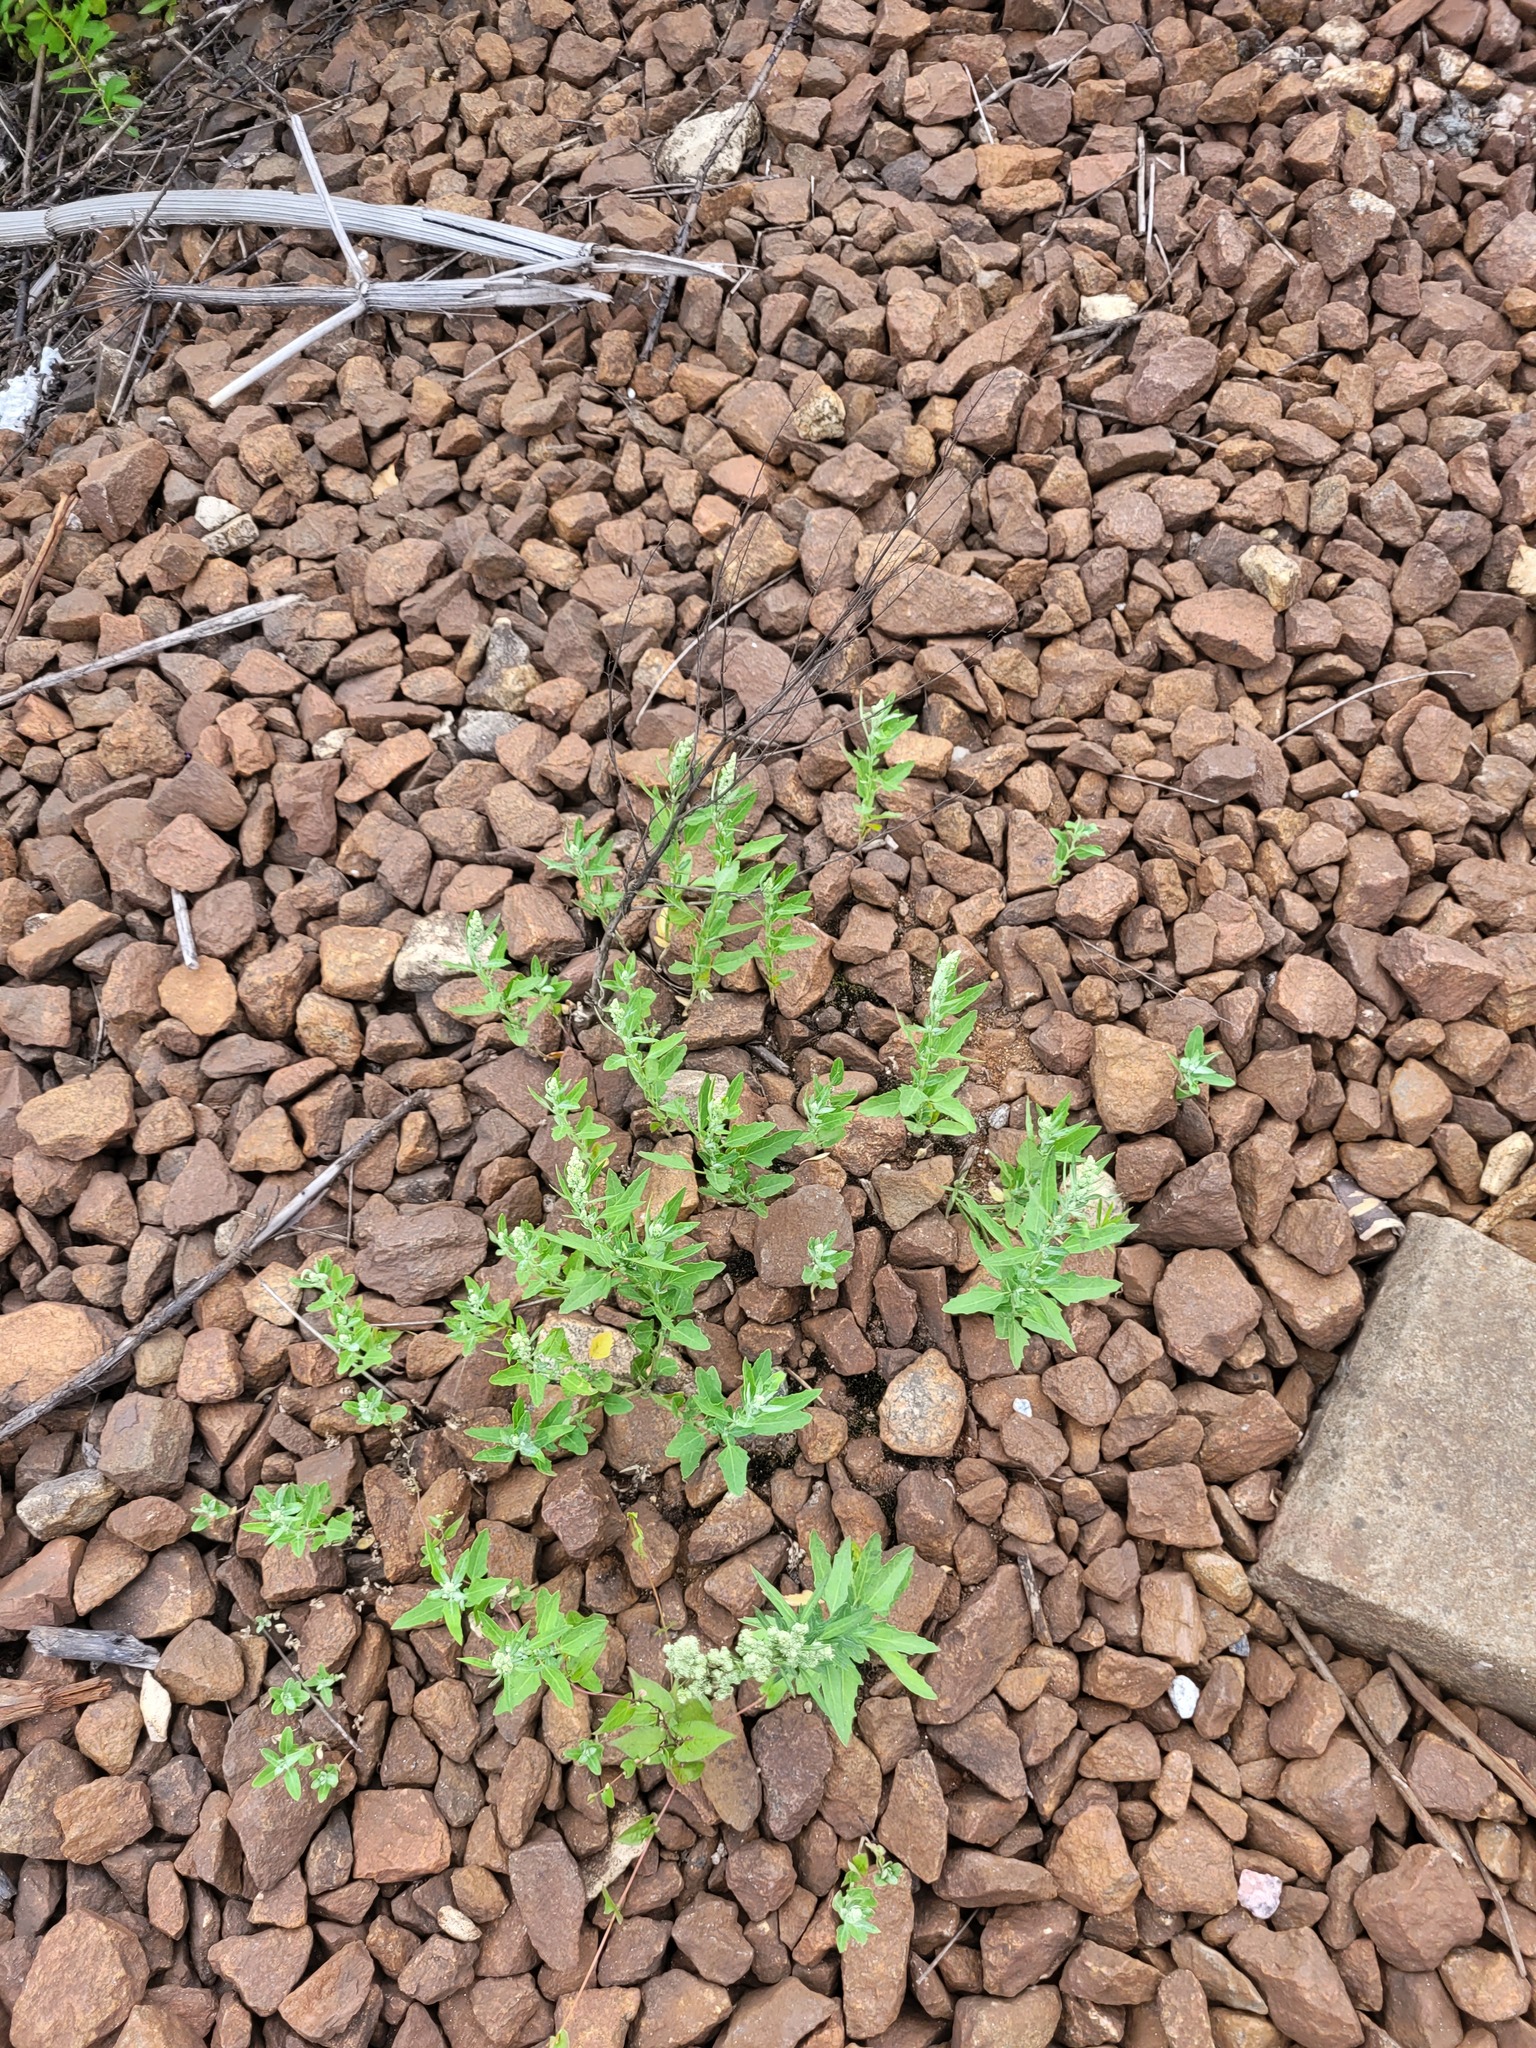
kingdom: Plantae
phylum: Tracheophyta
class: Magnoliopsida
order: Caryophyllales
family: Amaranthaceae
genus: Chenopodium
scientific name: Chenopodium album
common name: Fat-hen
